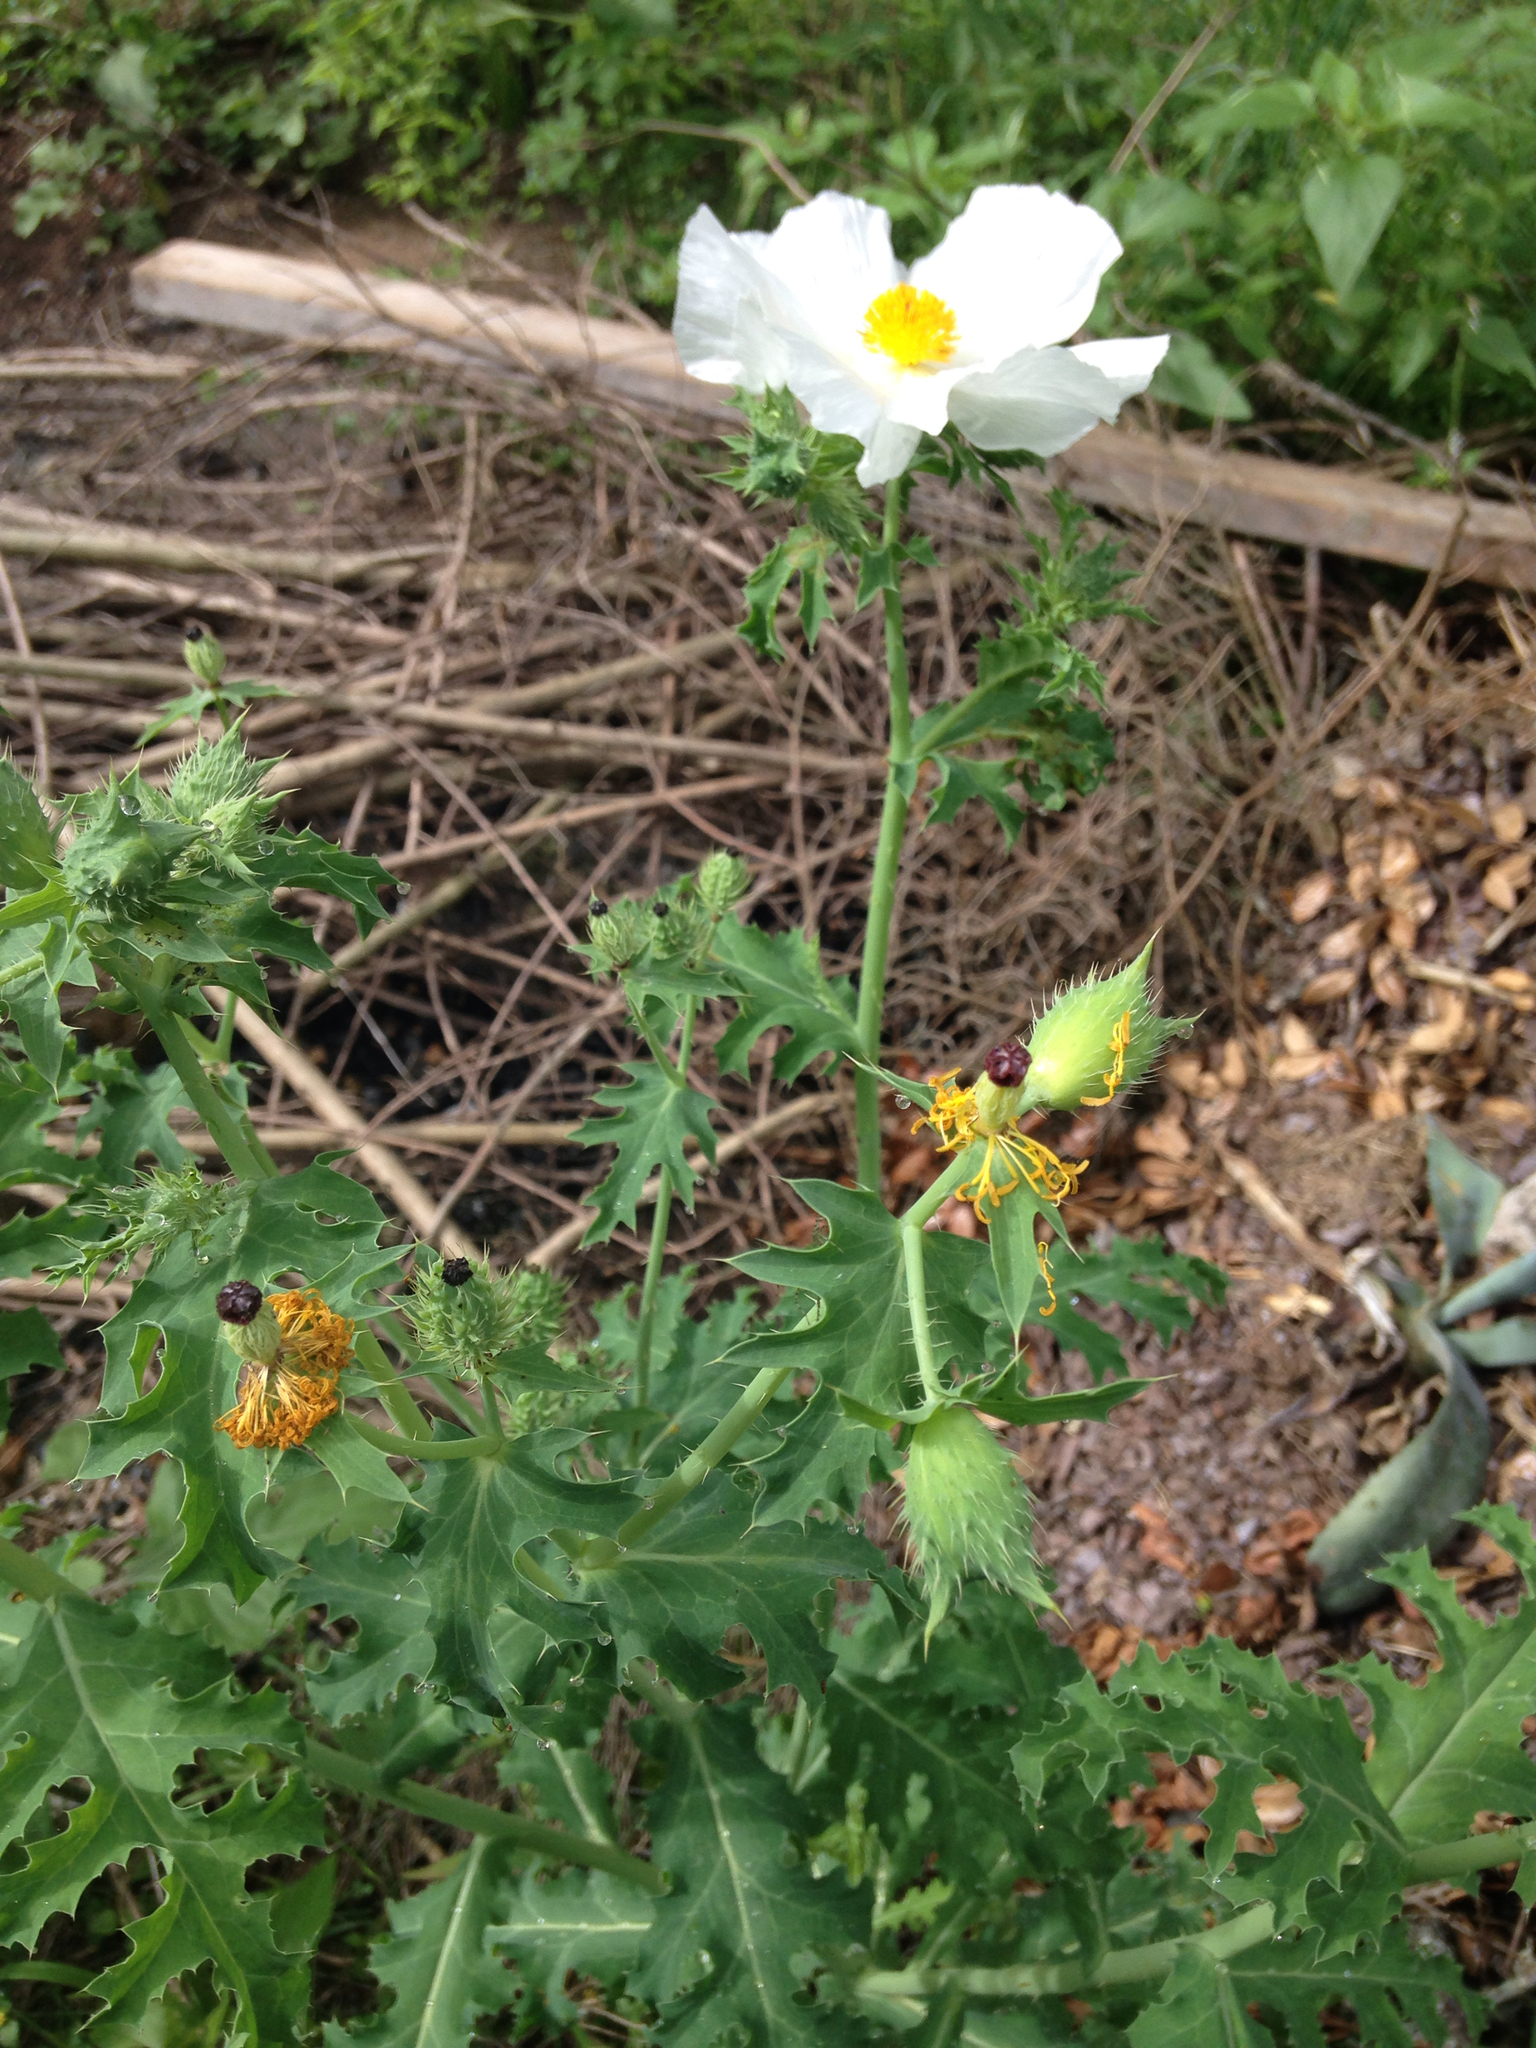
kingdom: Plantae
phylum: Tracheophyta
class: Magnoliopsida
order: Ranunculales
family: Papaveraceae
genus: Argemone
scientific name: Argemone albiflora
